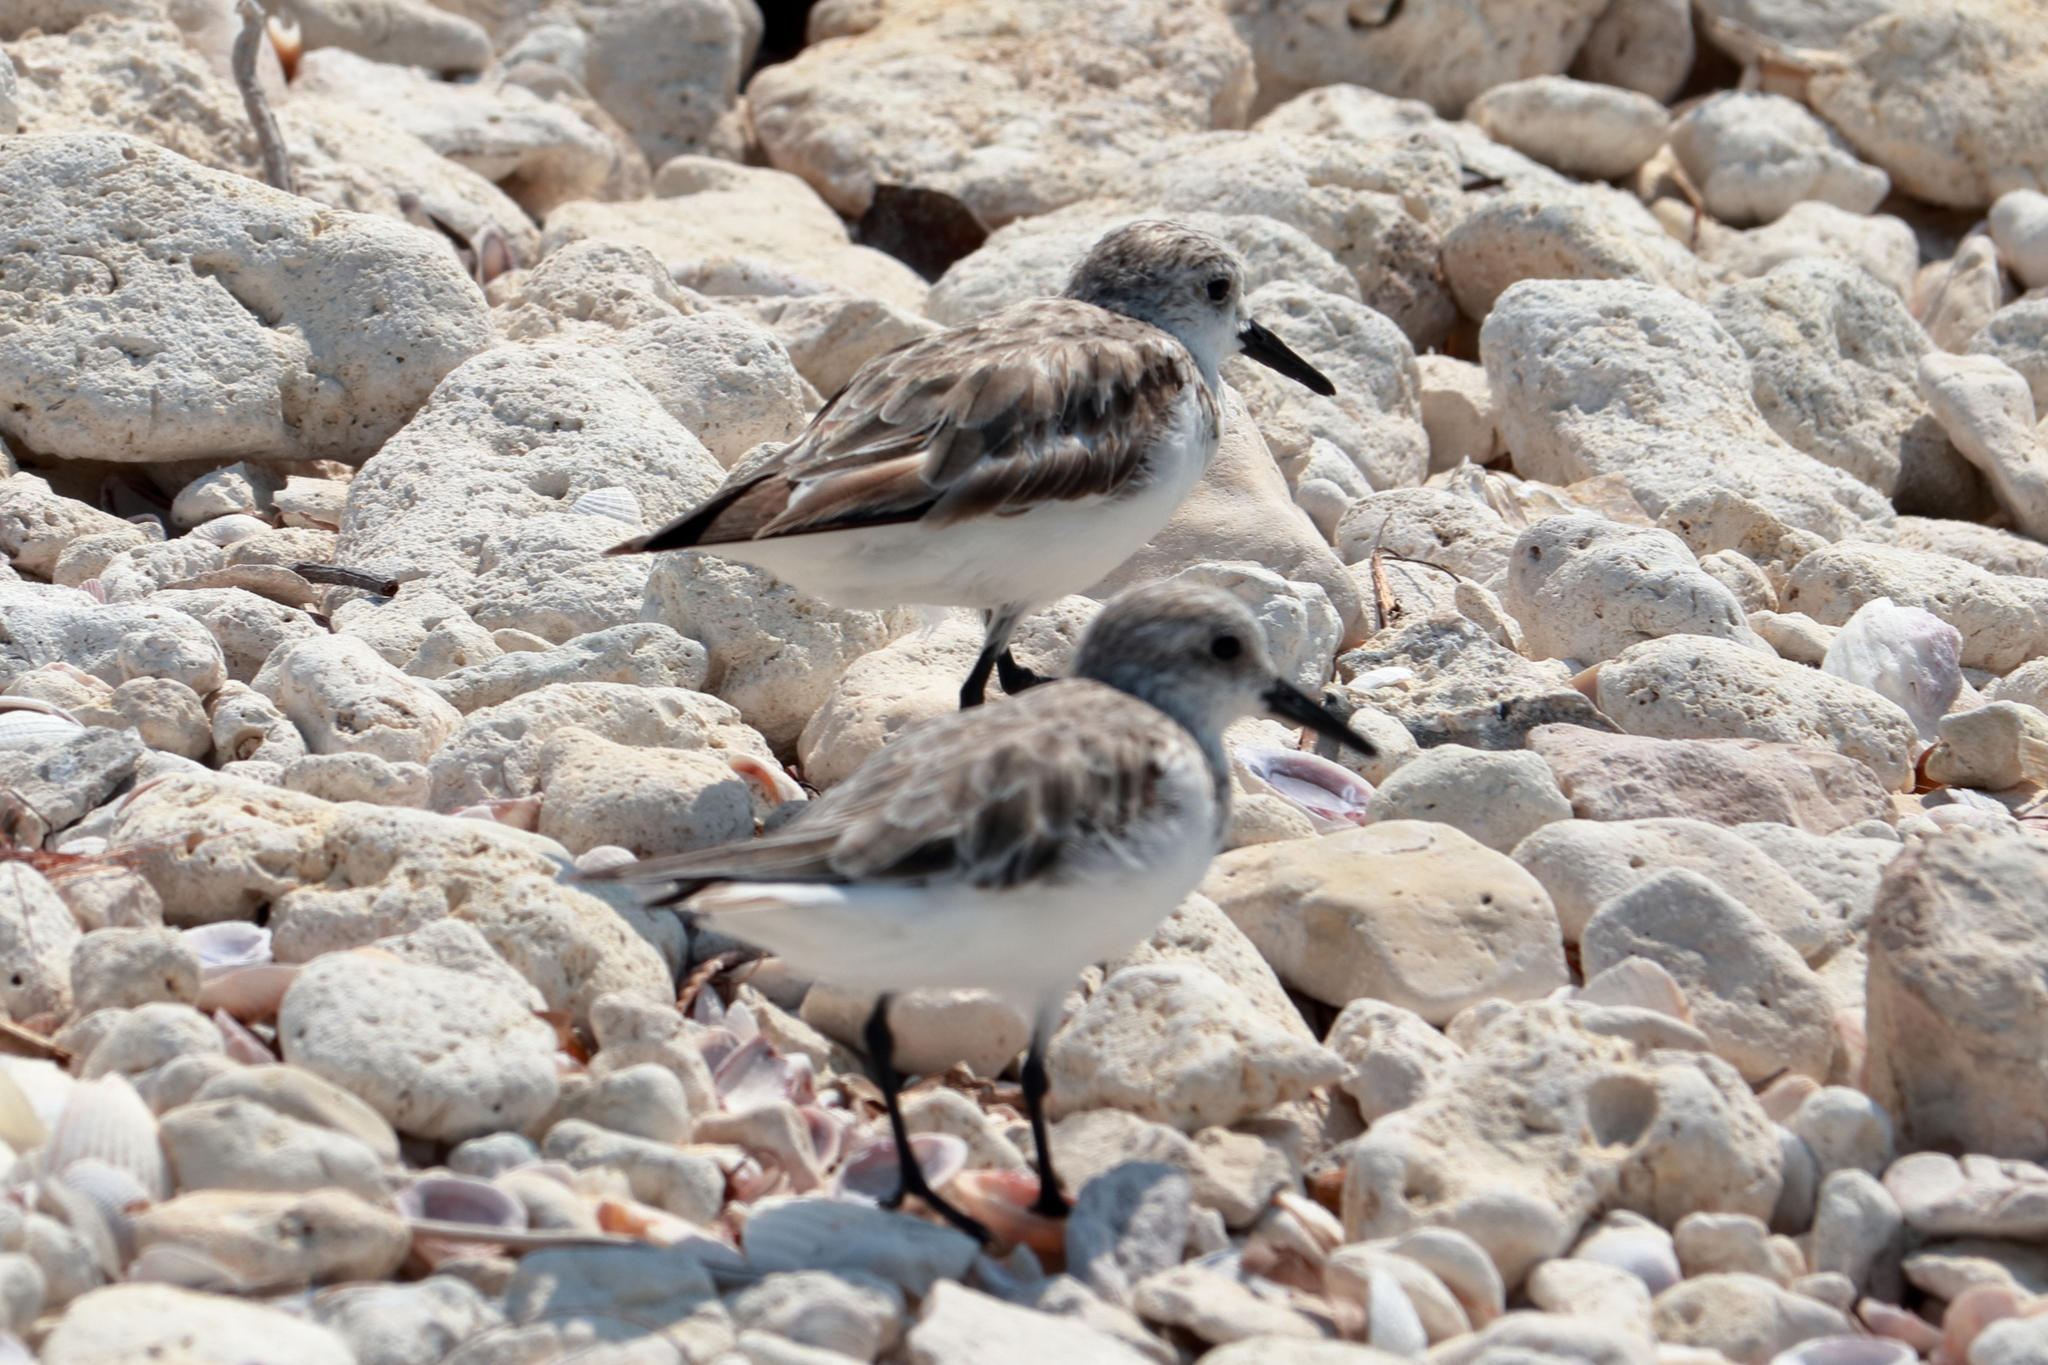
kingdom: Animalia
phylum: Chordata
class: Aves
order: Charadriiformes
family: Scolopacidae
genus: Calidris
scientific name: Calidris alba
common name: Sanderling
